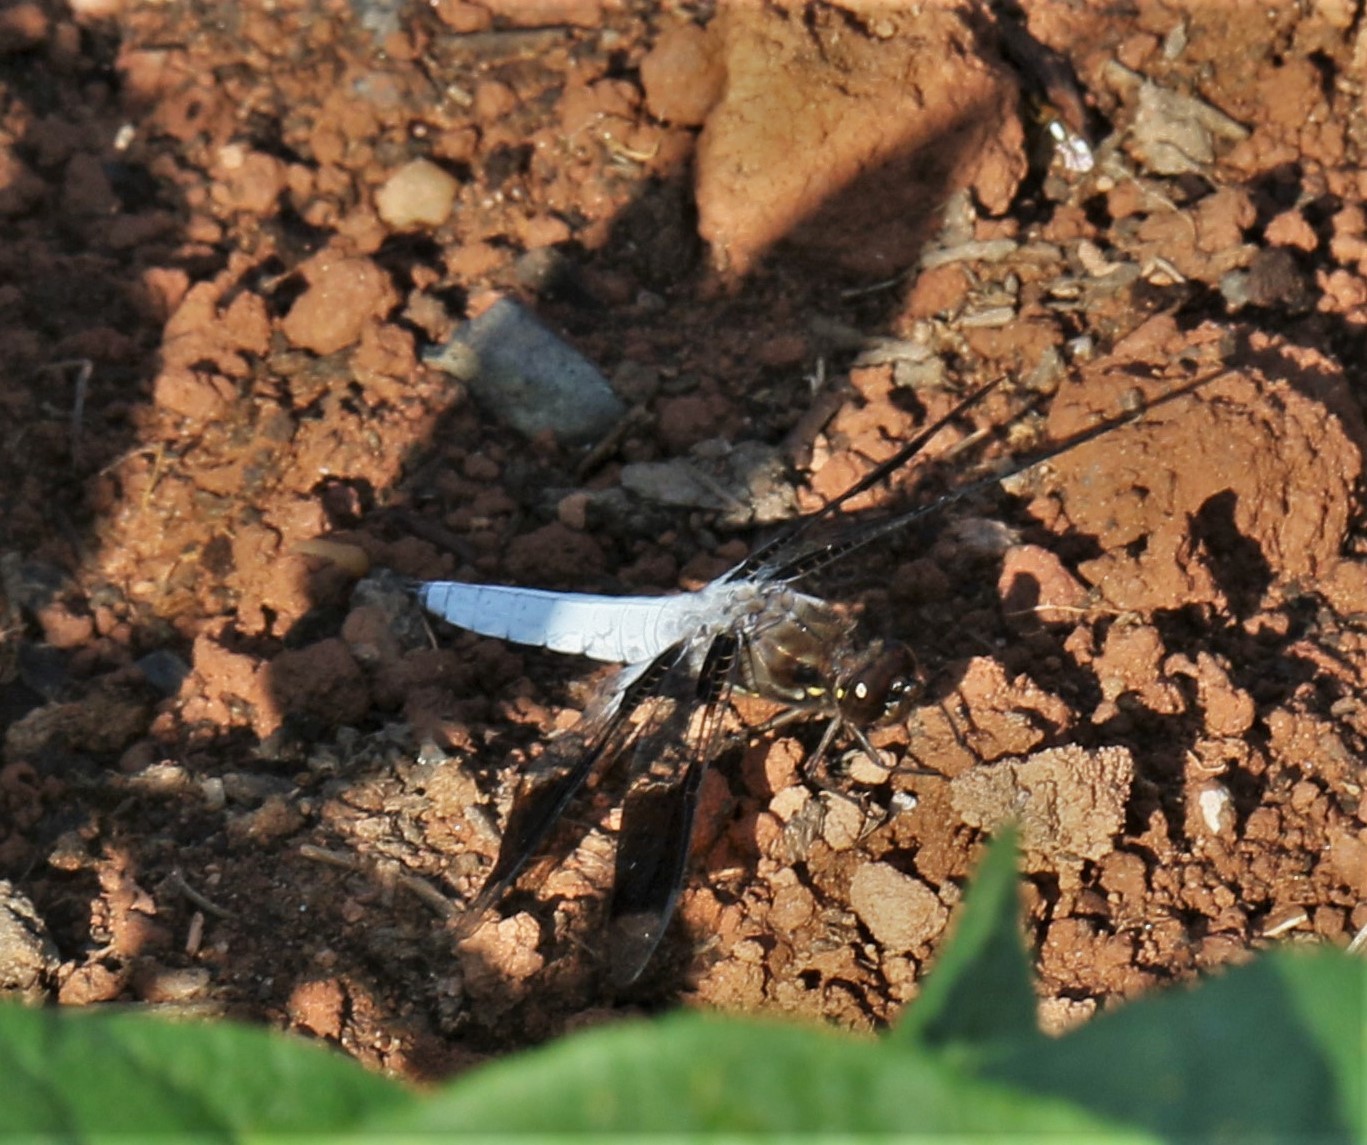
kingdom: Animalia
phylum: Arthropoda
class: Insecta
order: Odonata
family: Libellulidae
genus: Plathemis
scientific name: Plathemis lydia
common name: Common whitetail
